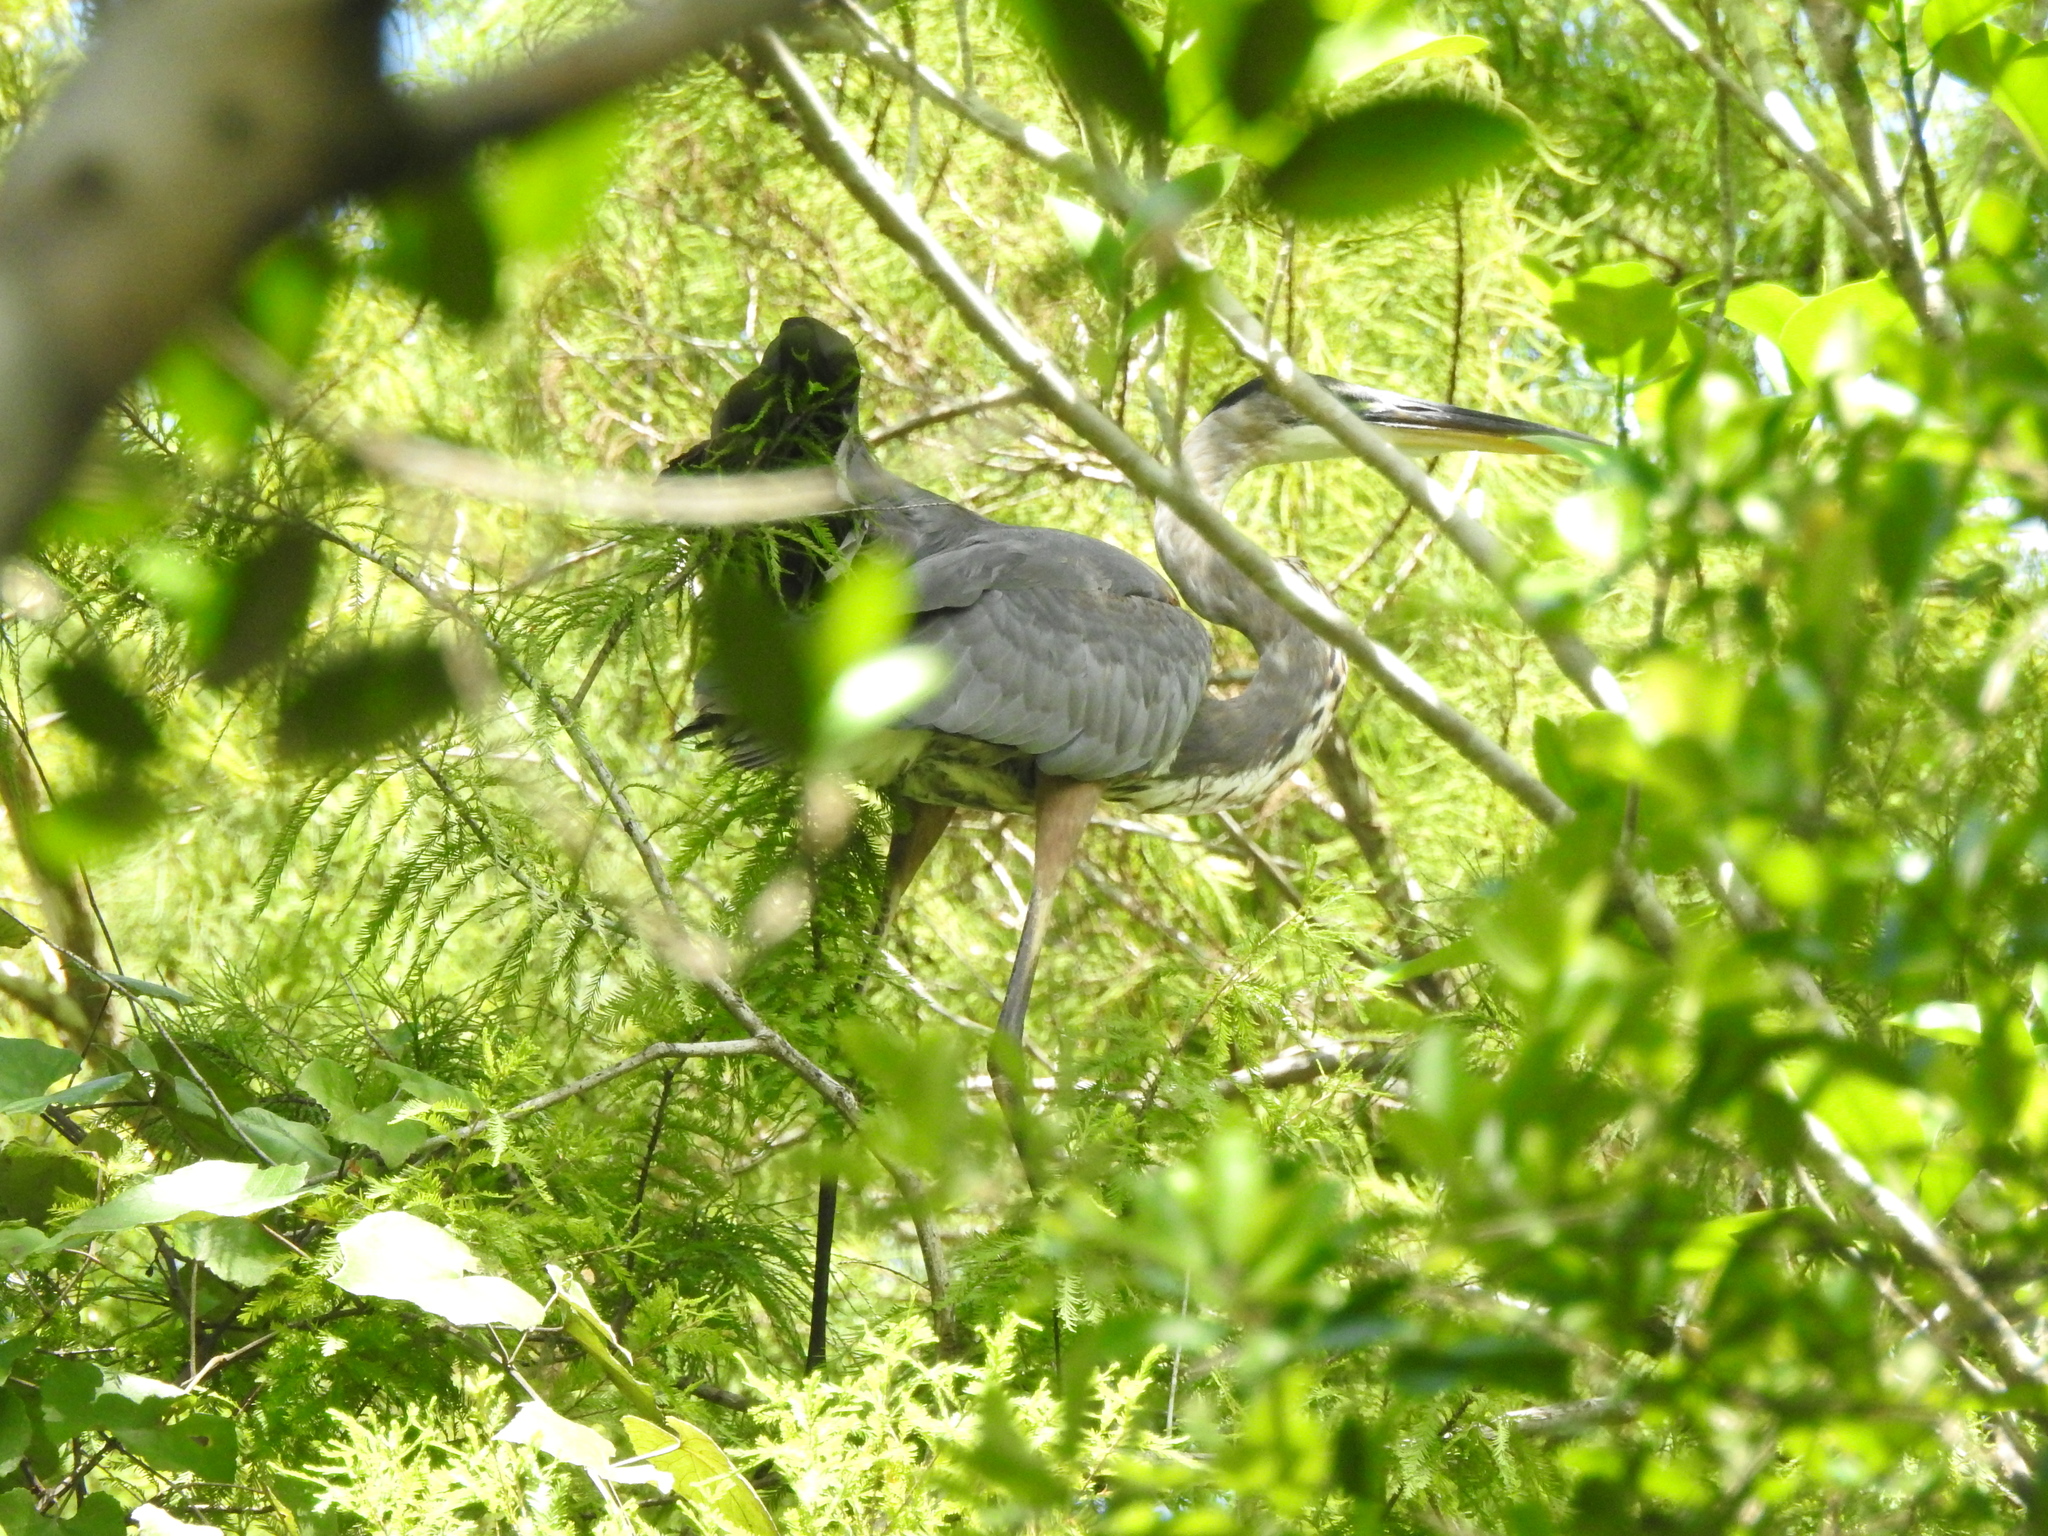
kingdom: Animalia
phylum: Chordata
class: Aves
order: Pelecaniformes
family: Ardeidae
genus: Ardea
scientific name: Ardea herodias
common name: Great blue heron
